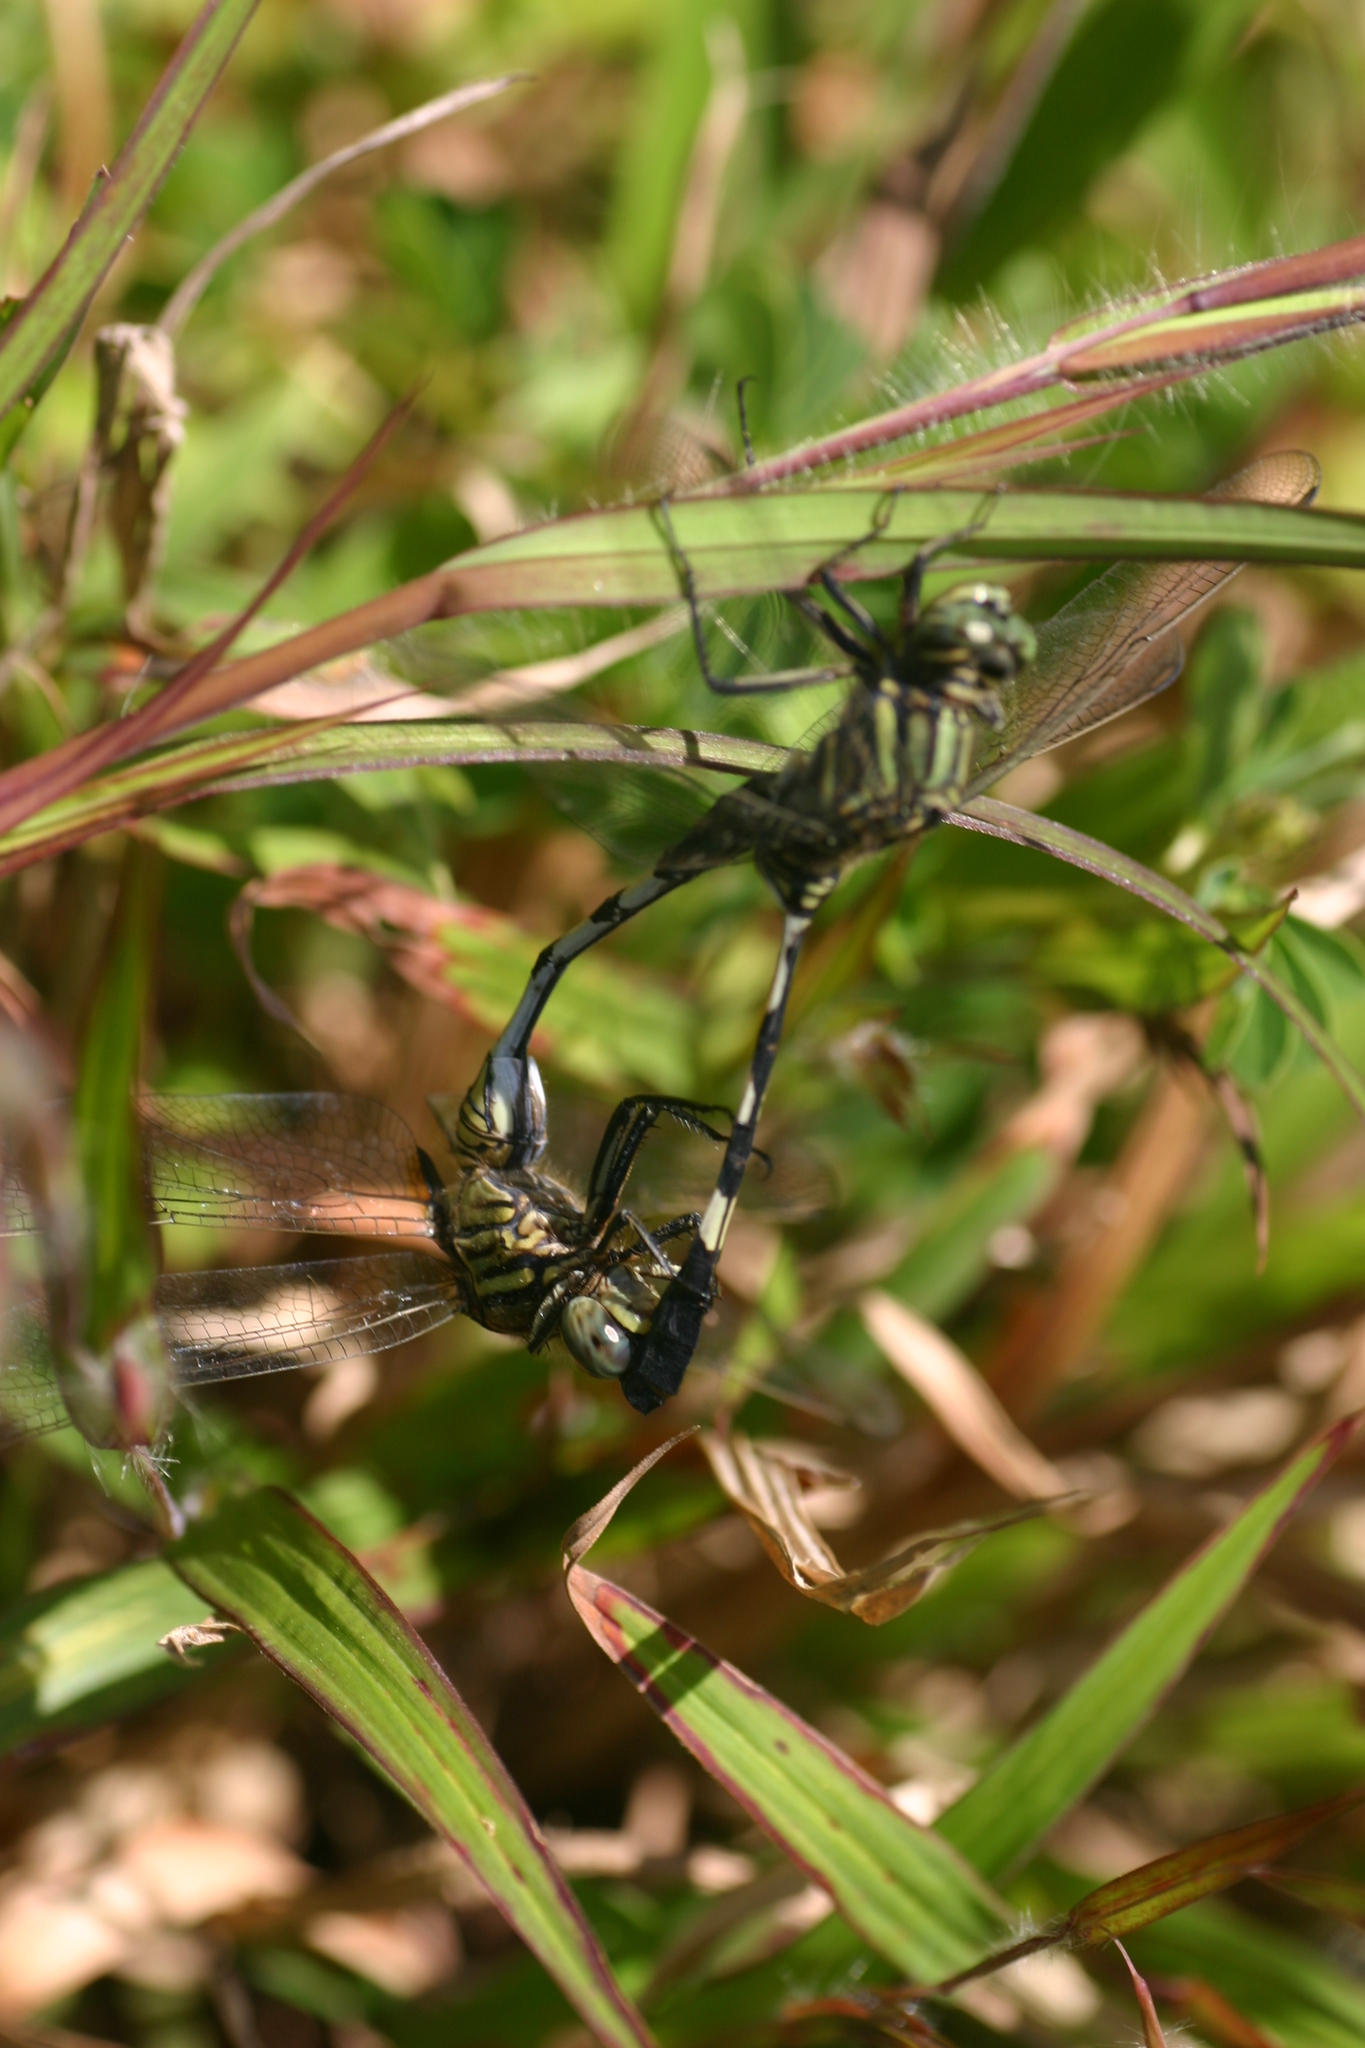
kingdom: Animalia
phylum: Arthropoda
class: Insecta
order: Odonata
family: Libellulidae
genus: Orthetrum
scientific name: Orthetrum sabina
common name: Slender skimmer
